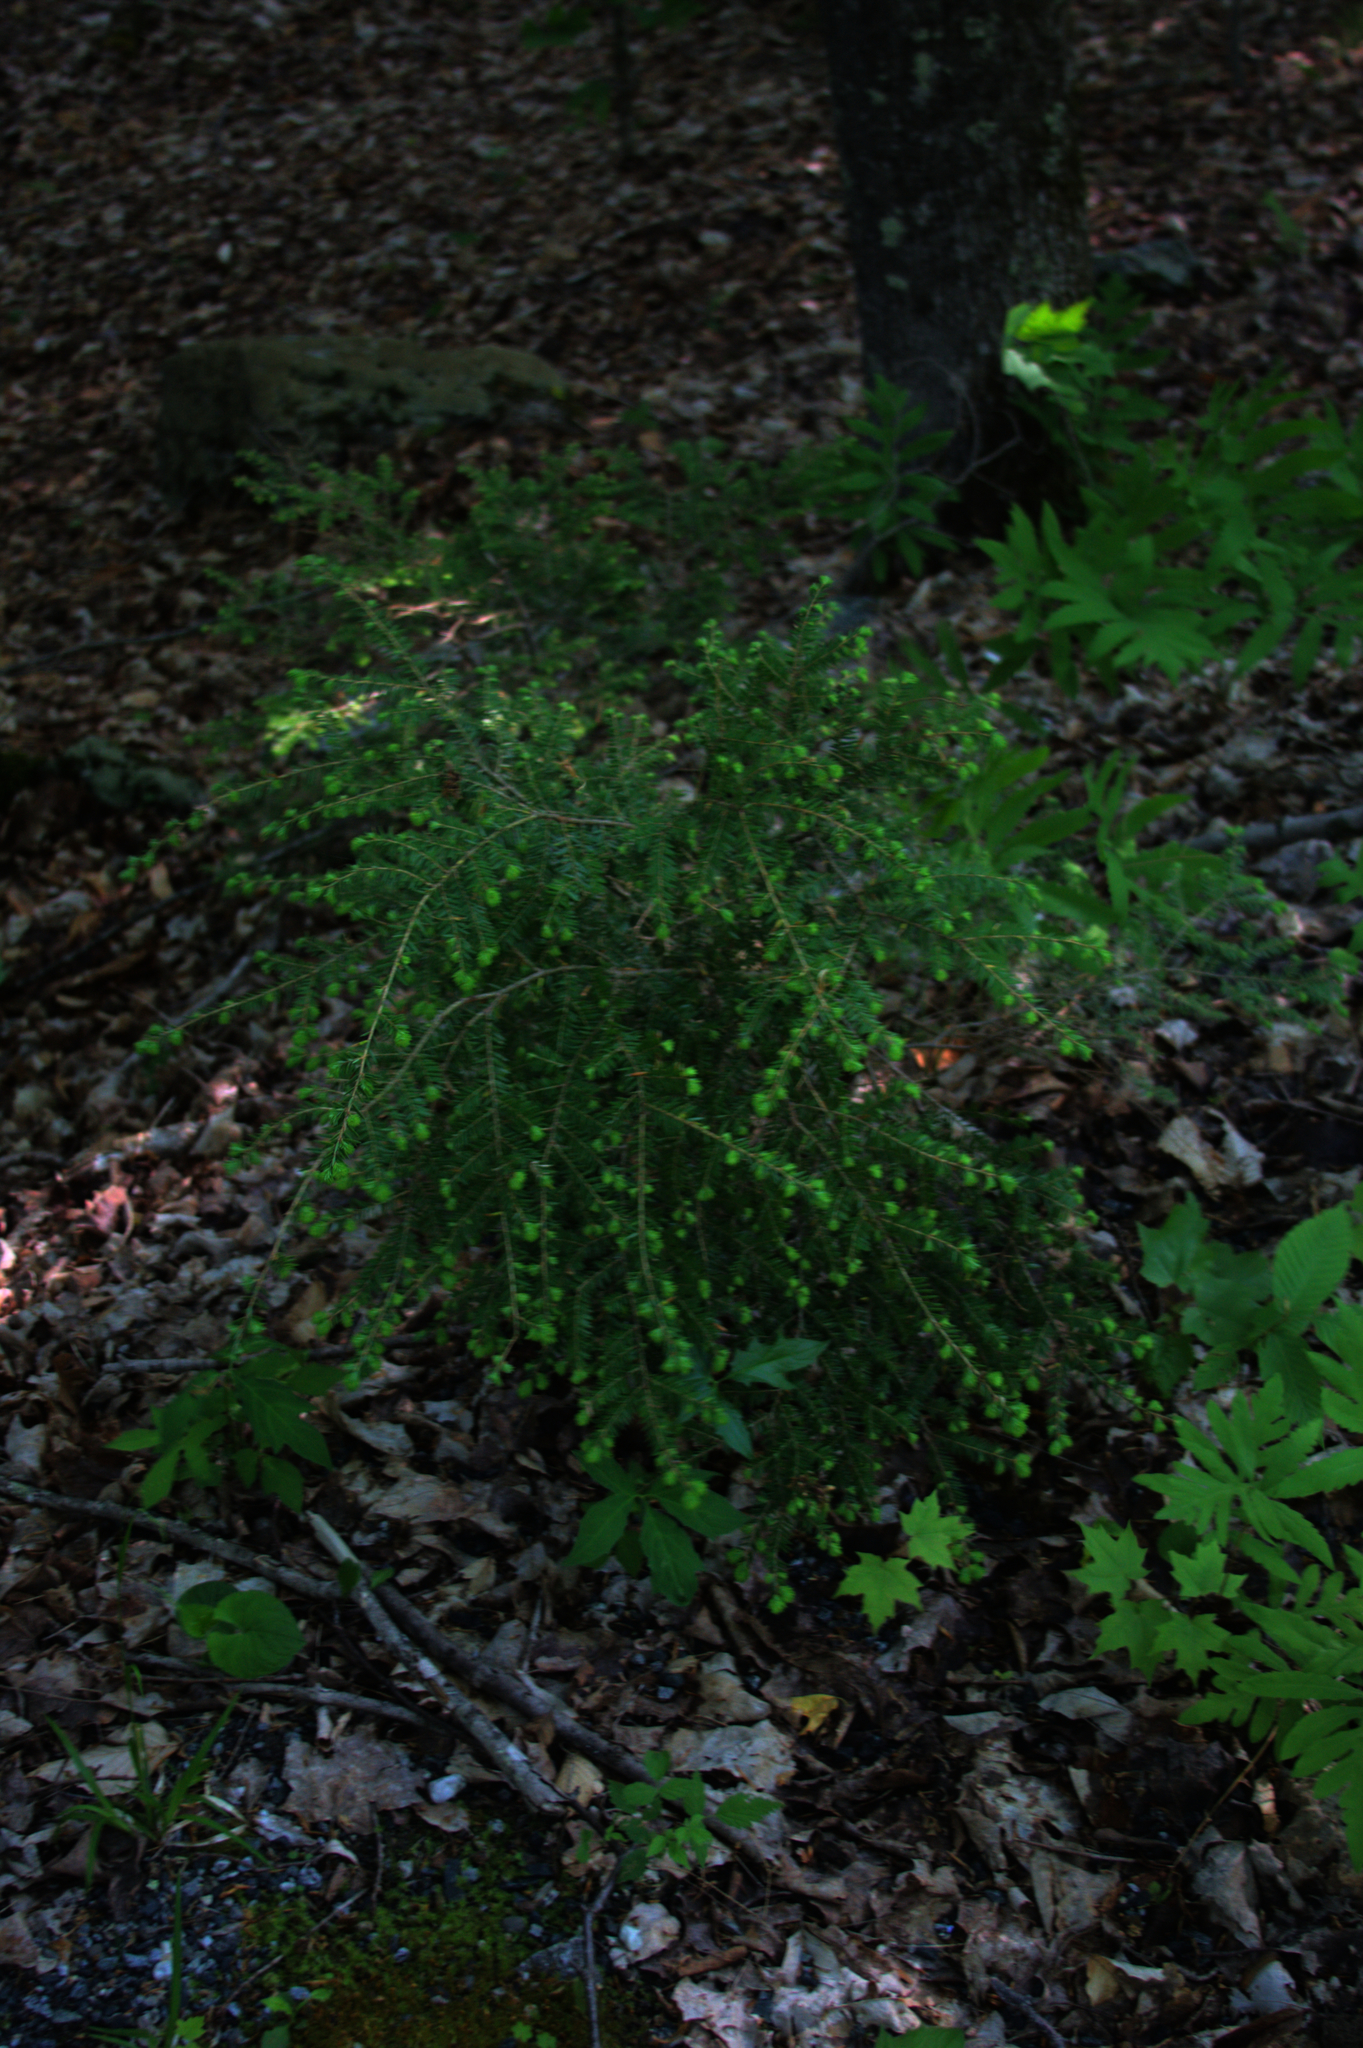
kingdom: Plantae
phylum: Tracheophyta
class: Pinopsida
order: Pinales
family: Pinaceae
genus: Tsuga
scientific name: Tsuga canadensis
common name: Eastern hemlock
